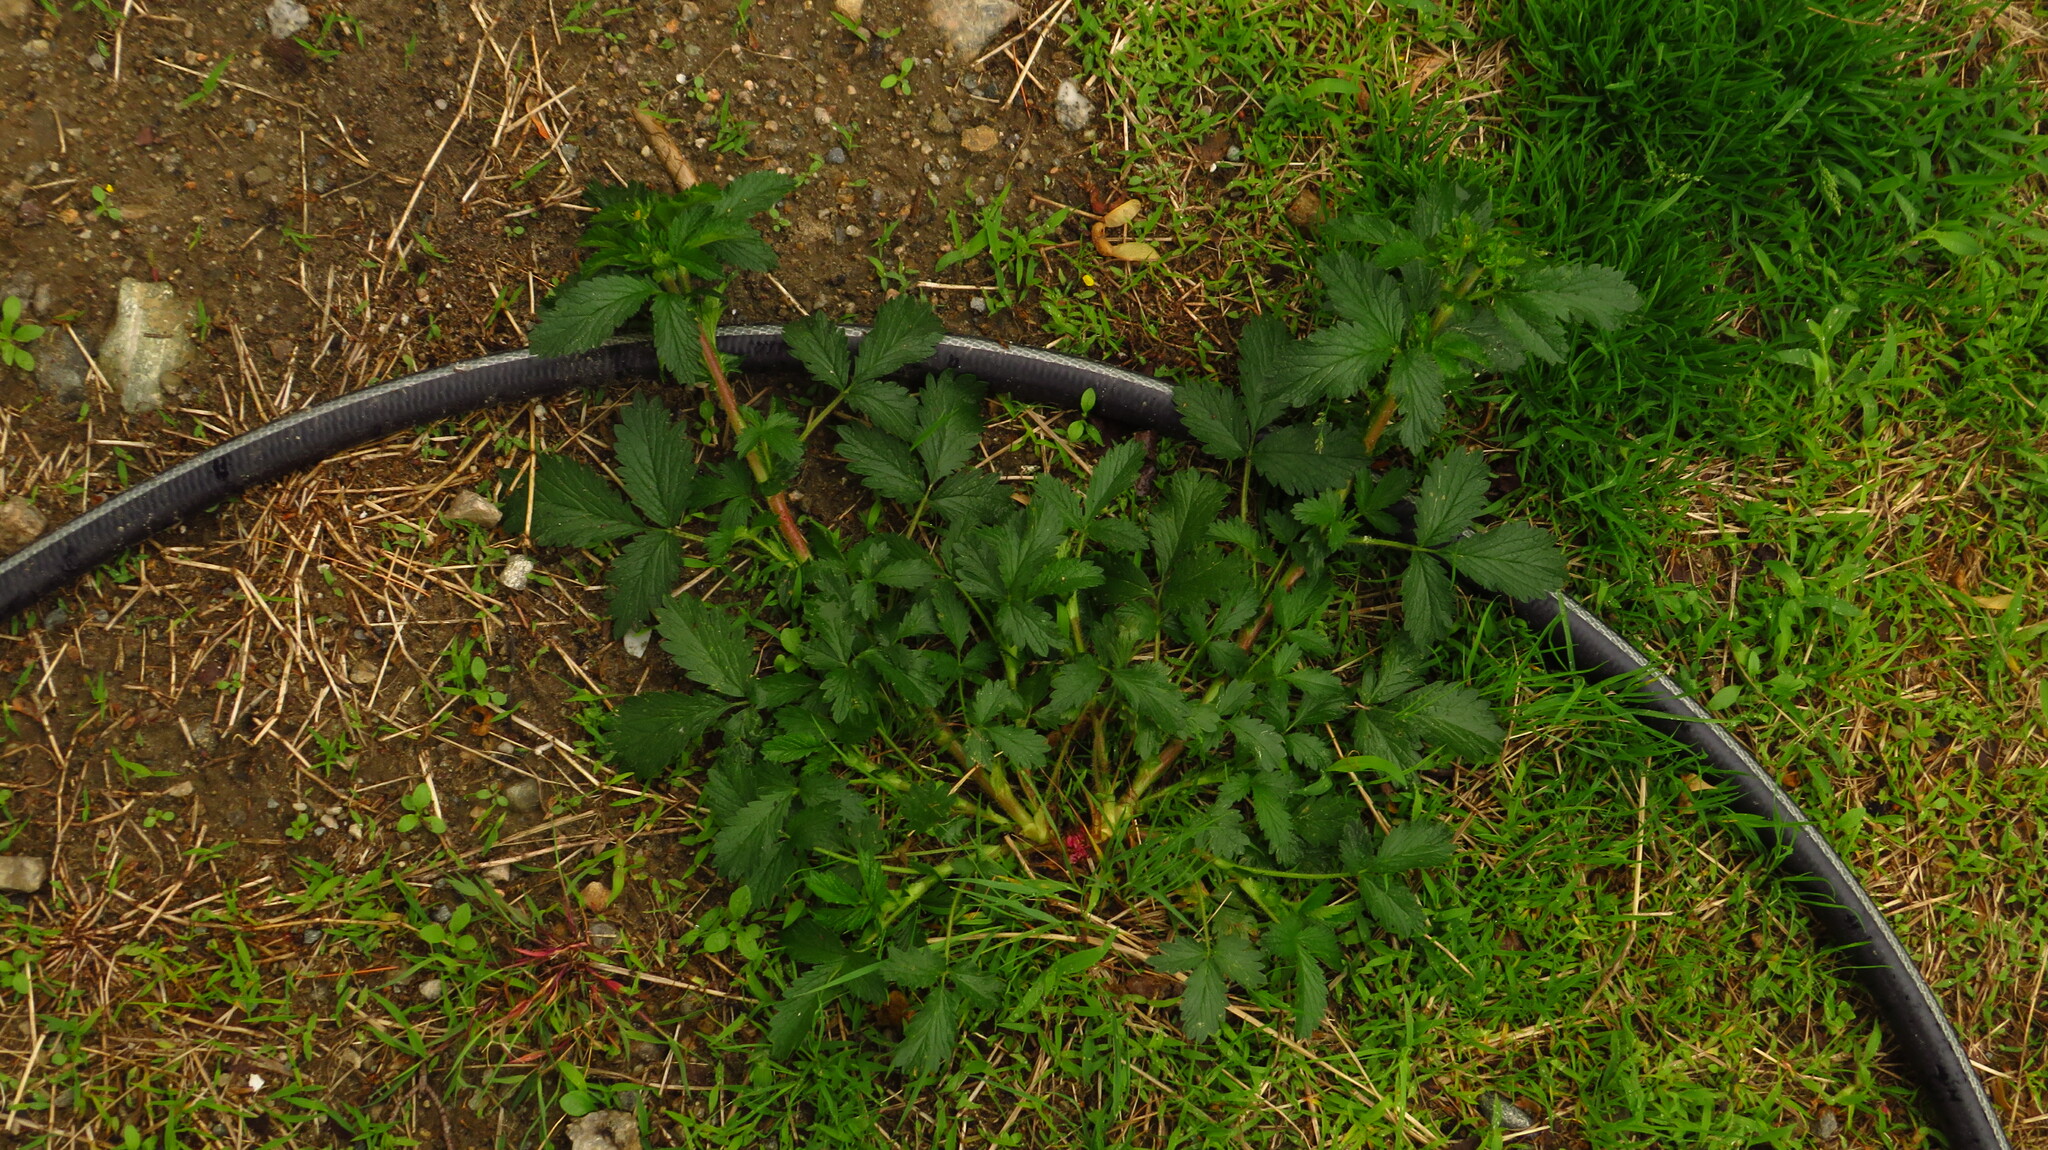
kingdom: Plantae
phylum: Tracheophyta
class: Magnoliopsida
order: Rosales
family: Rosaceae
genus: Potentilla
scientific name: Potentilla indica
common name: Yellow-flowered strawberry
